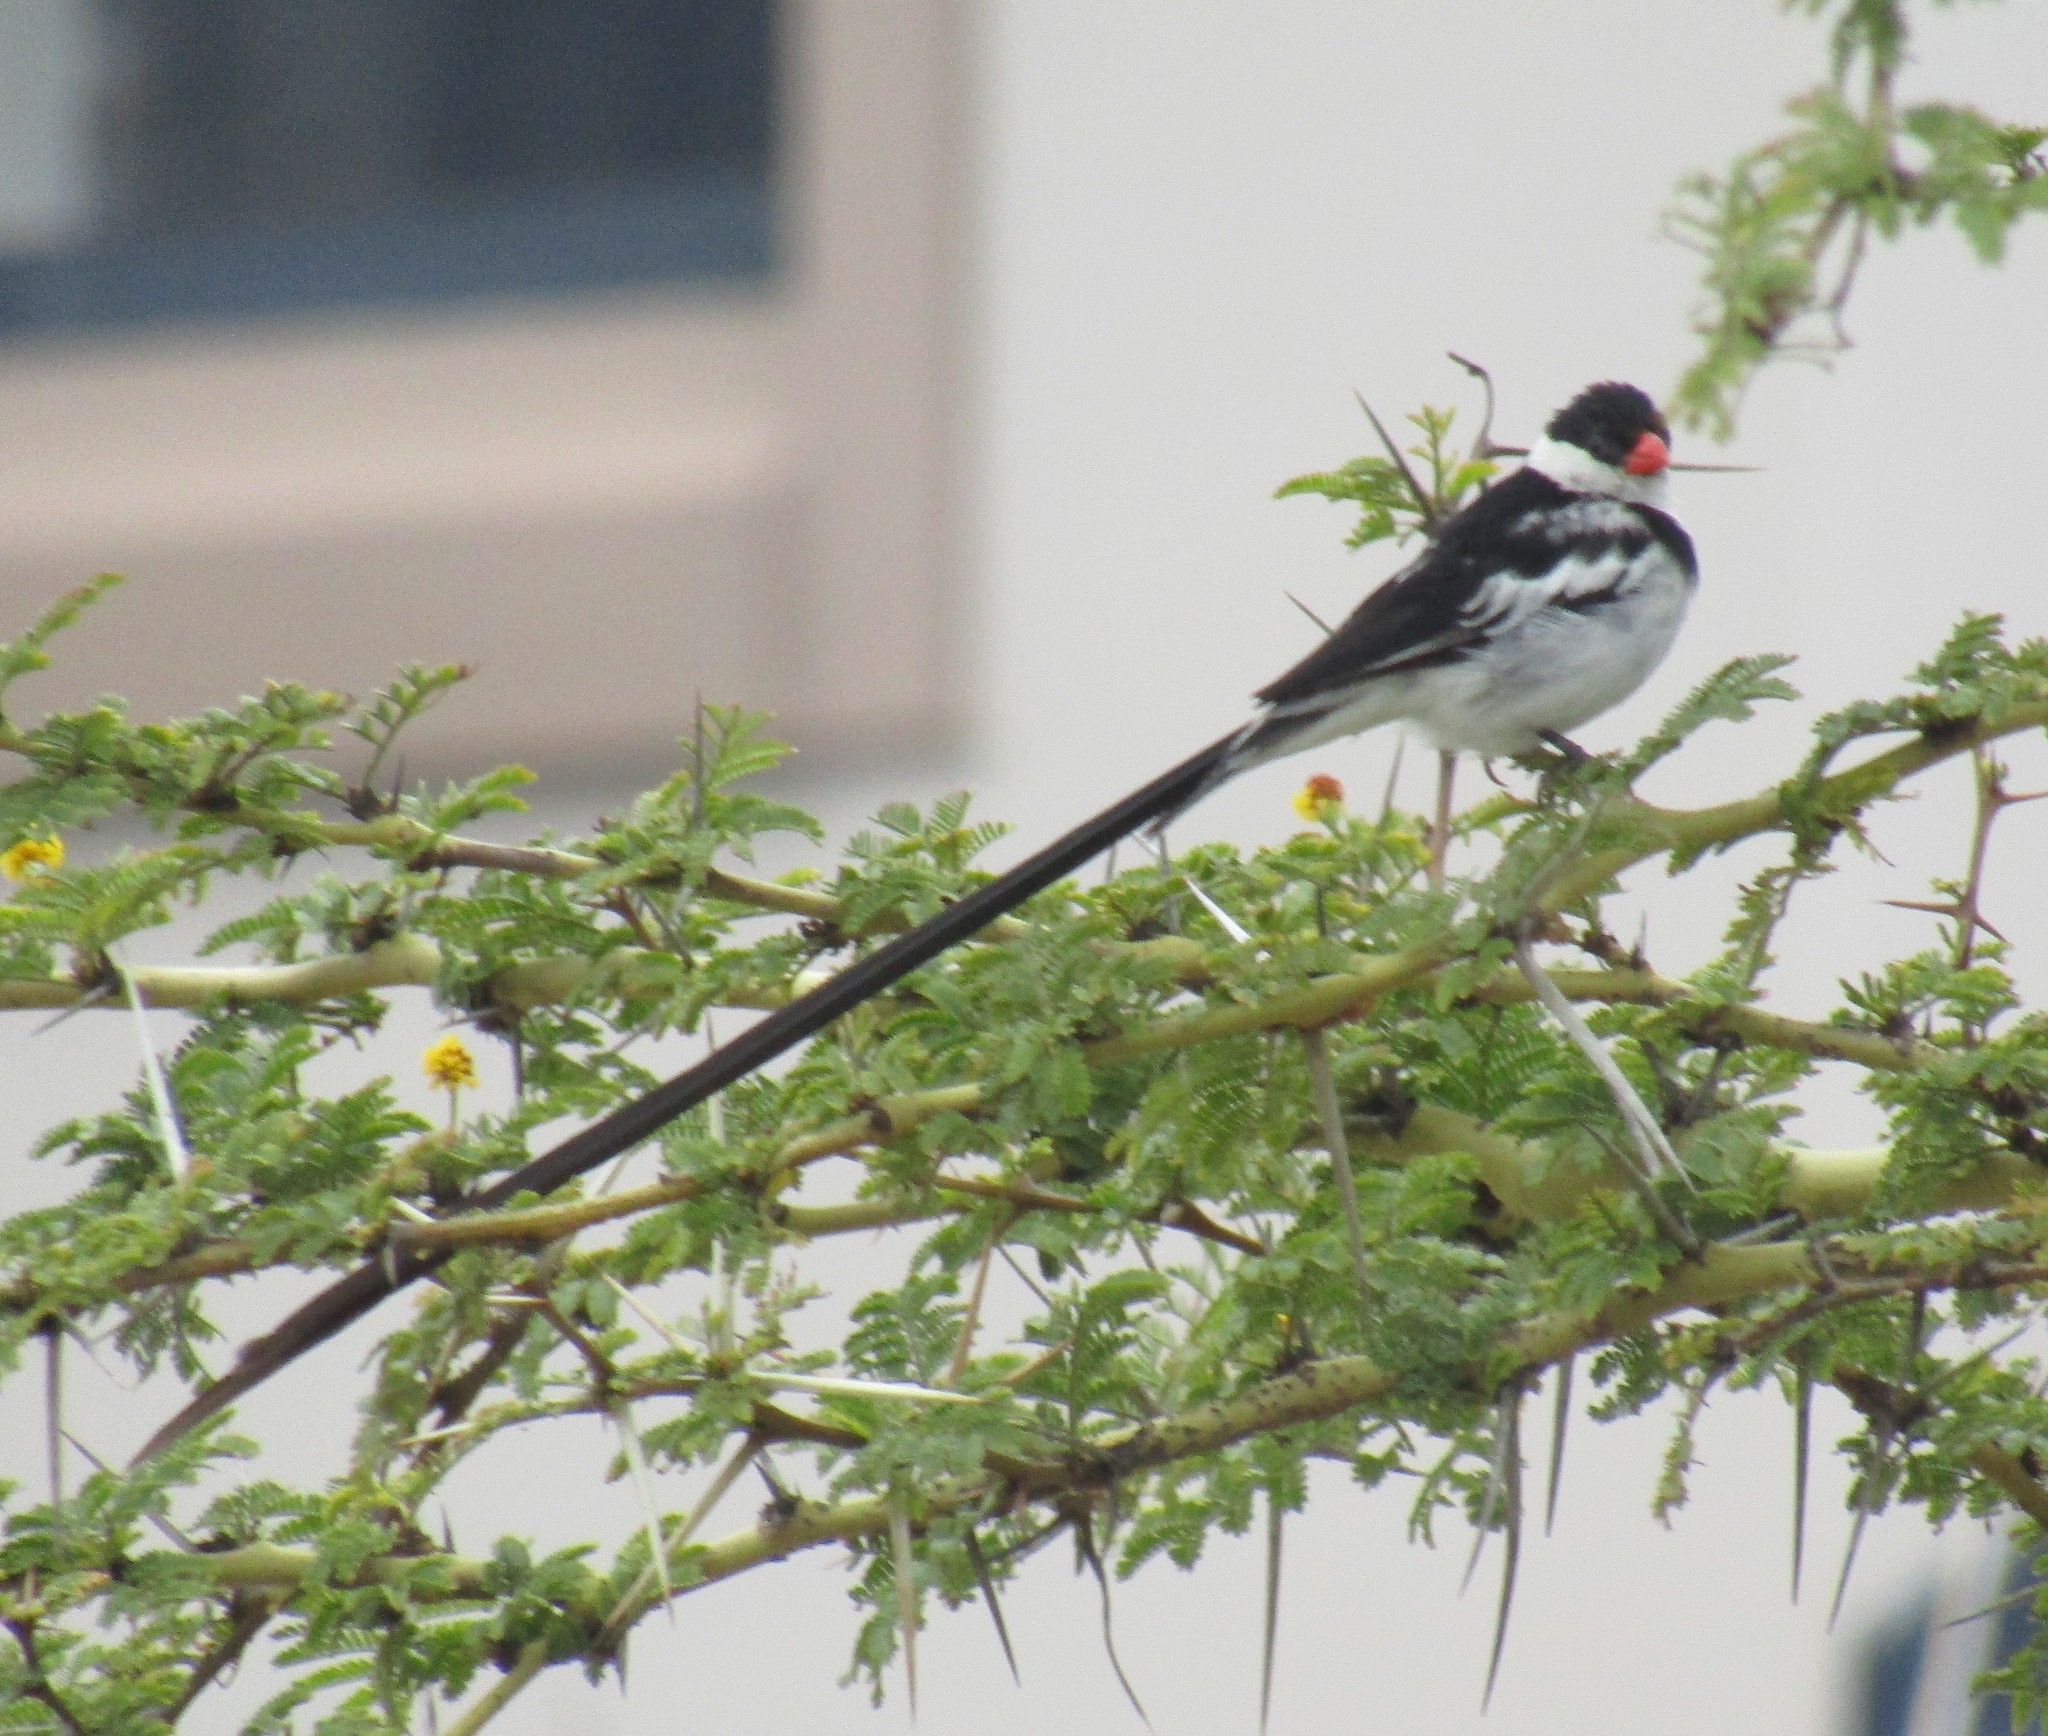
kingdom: Animalia
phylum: Chordata
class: Aves
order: Passeriformes
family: Viduidae
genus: Vidua
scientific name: Vidua macroura
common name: Pin-tailed whydah
